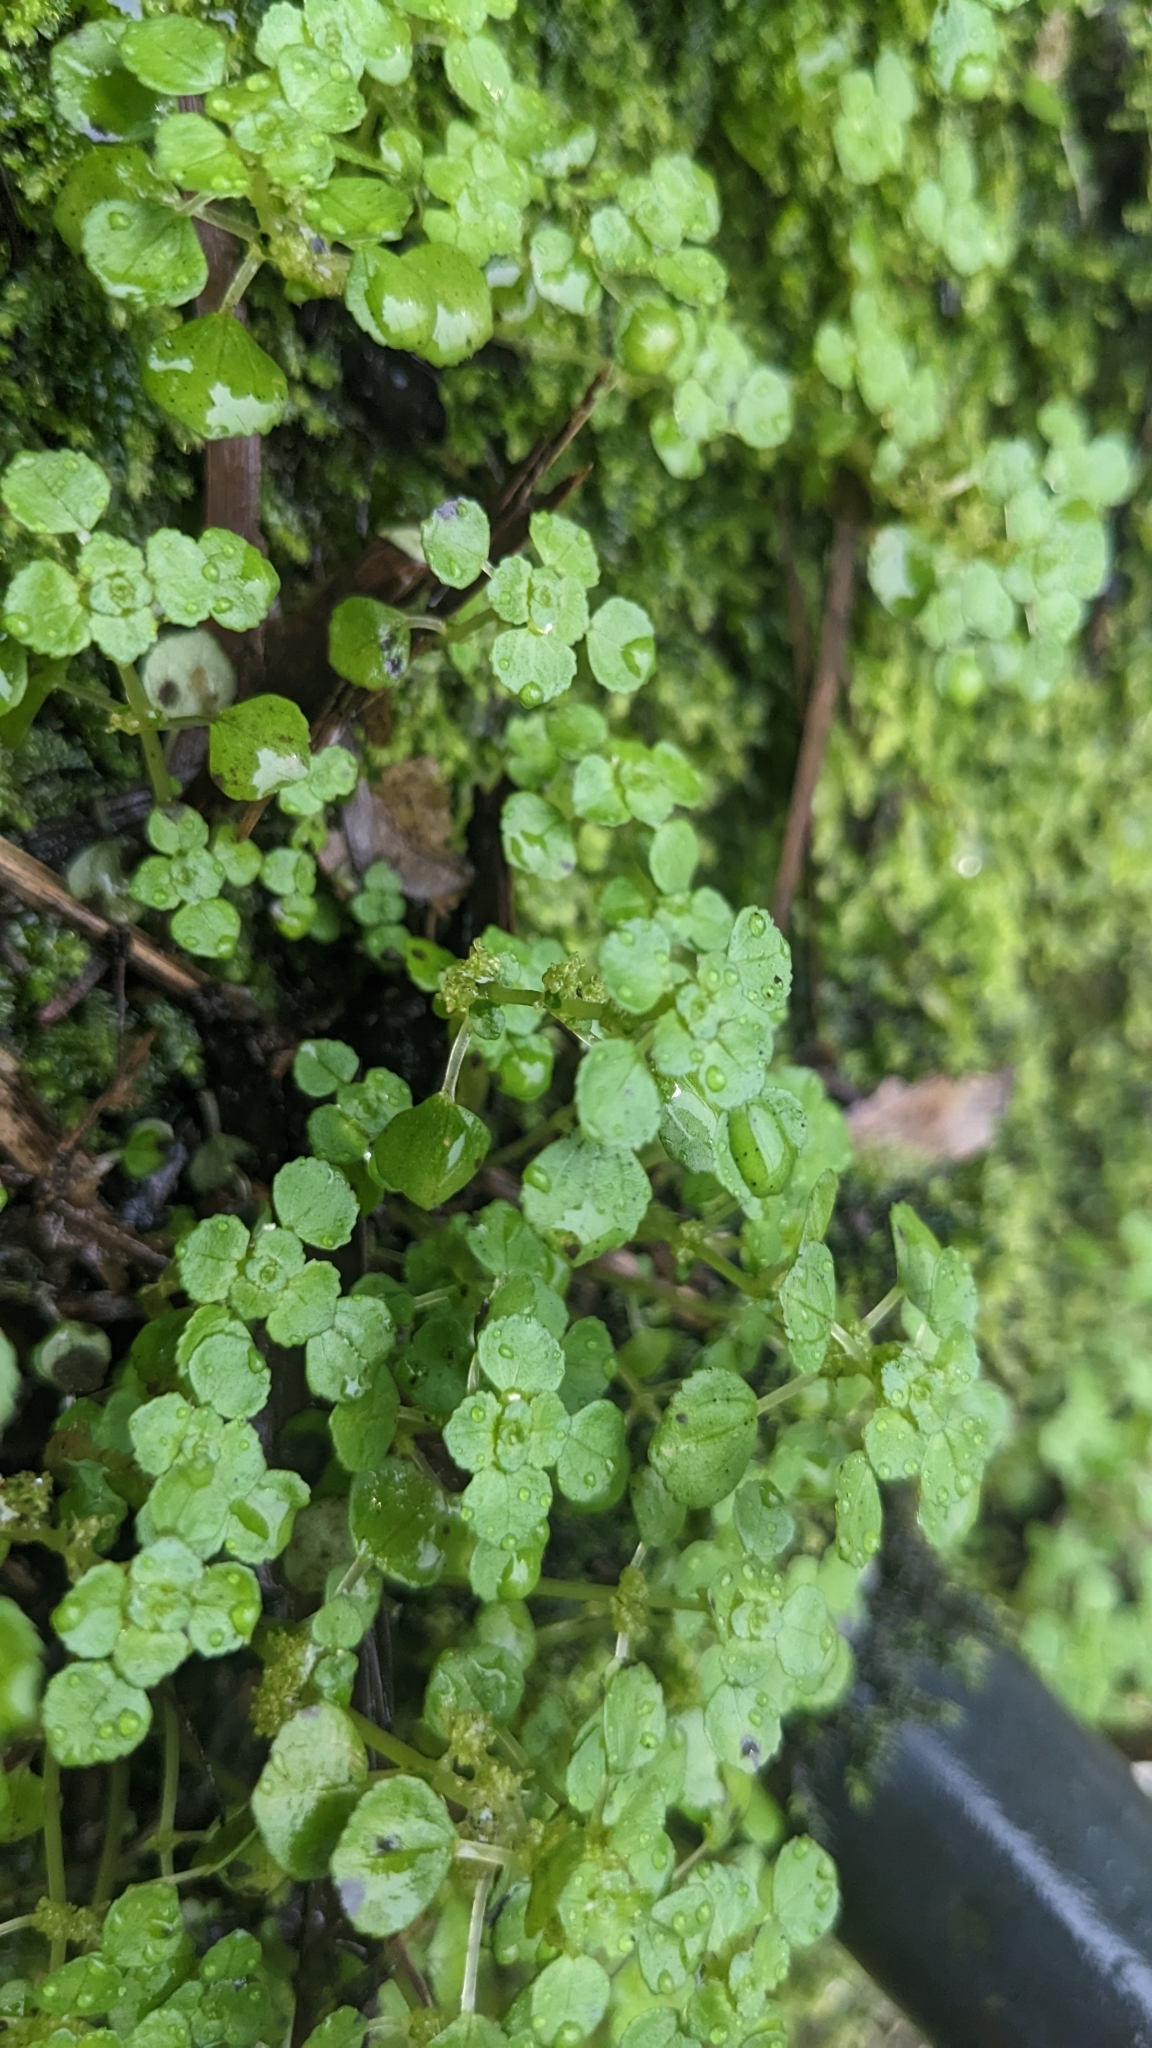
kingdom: Plantae
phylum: Tracheophyta
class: Magnoliopsida
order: Rosales
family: Urticaceae
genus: Pilea
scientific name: Pilea peploides
